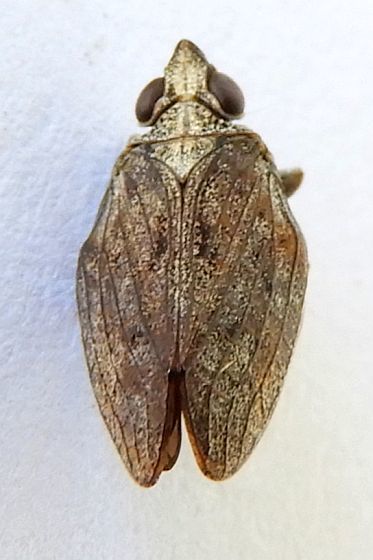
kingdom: Animalia
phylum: Arthropoda
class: Insecta
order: Hemiptera
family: Issidae
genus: Fowlerium
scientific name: Fowlerium productum
